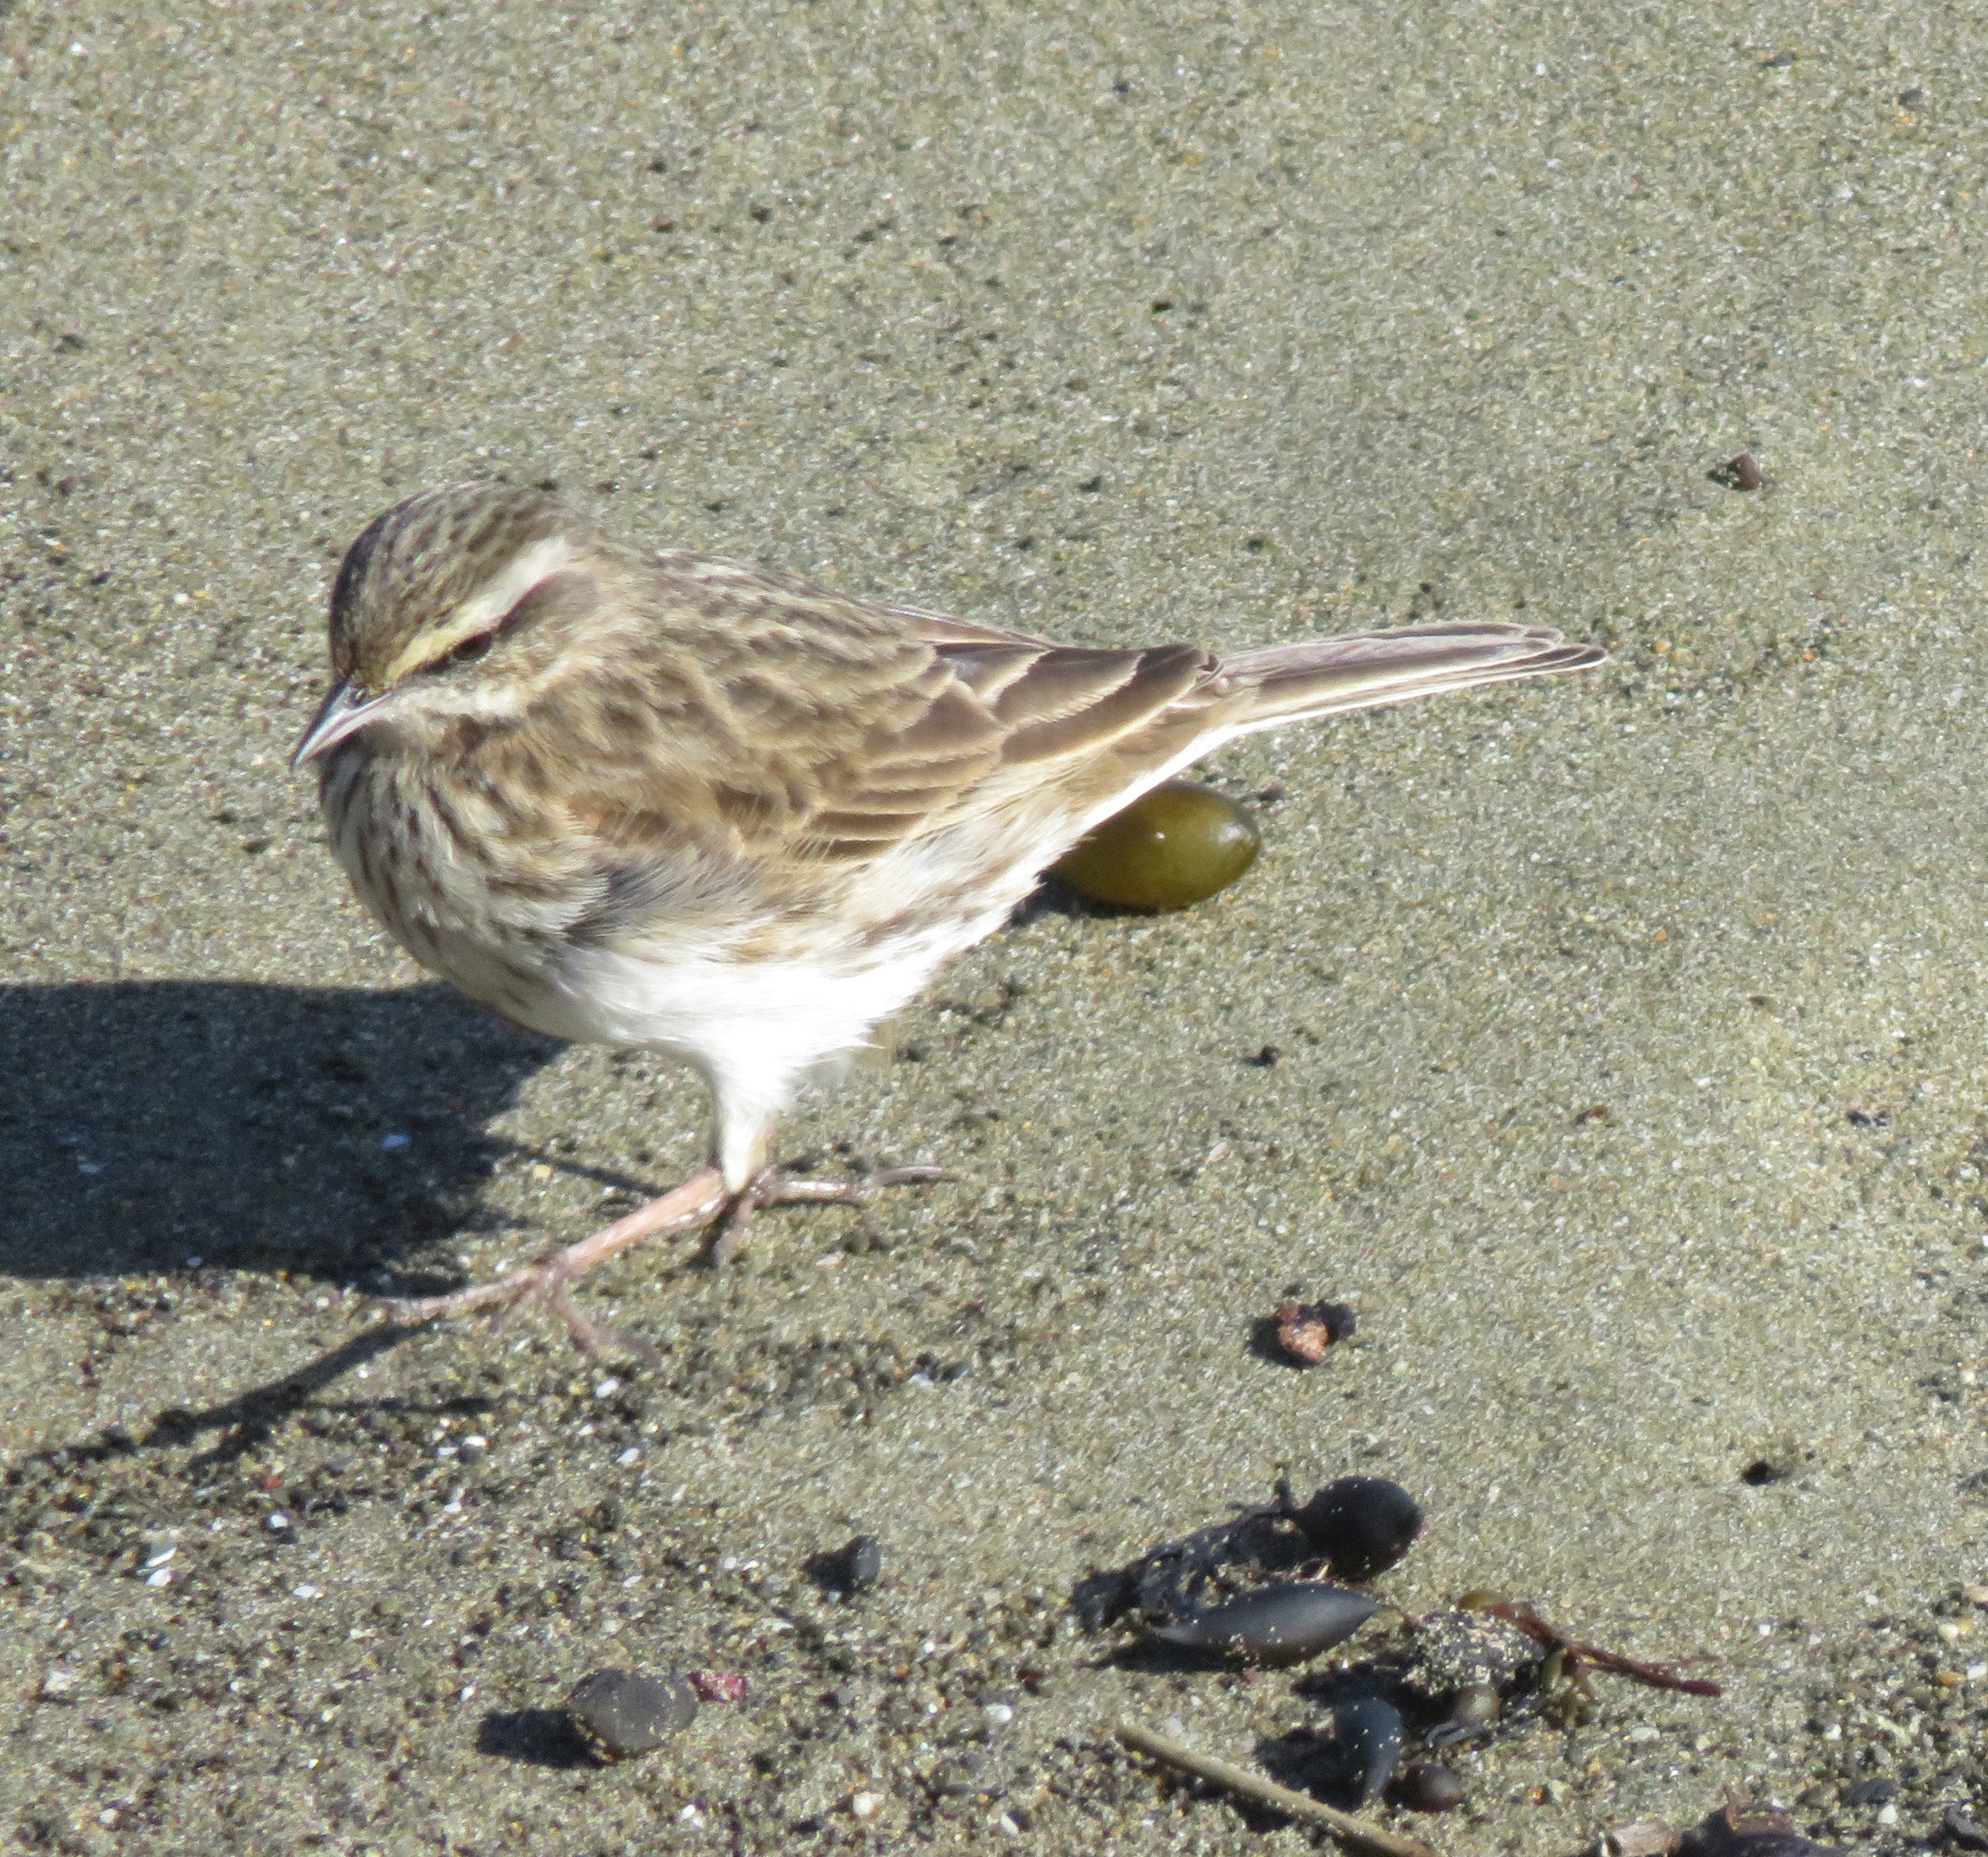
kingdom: Animalia
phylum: Chordata
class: Aves
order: Passeriformes
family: Motacillidae
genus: Anthus
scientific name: Anthus novaeseelandiae
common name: New zealand pipit
